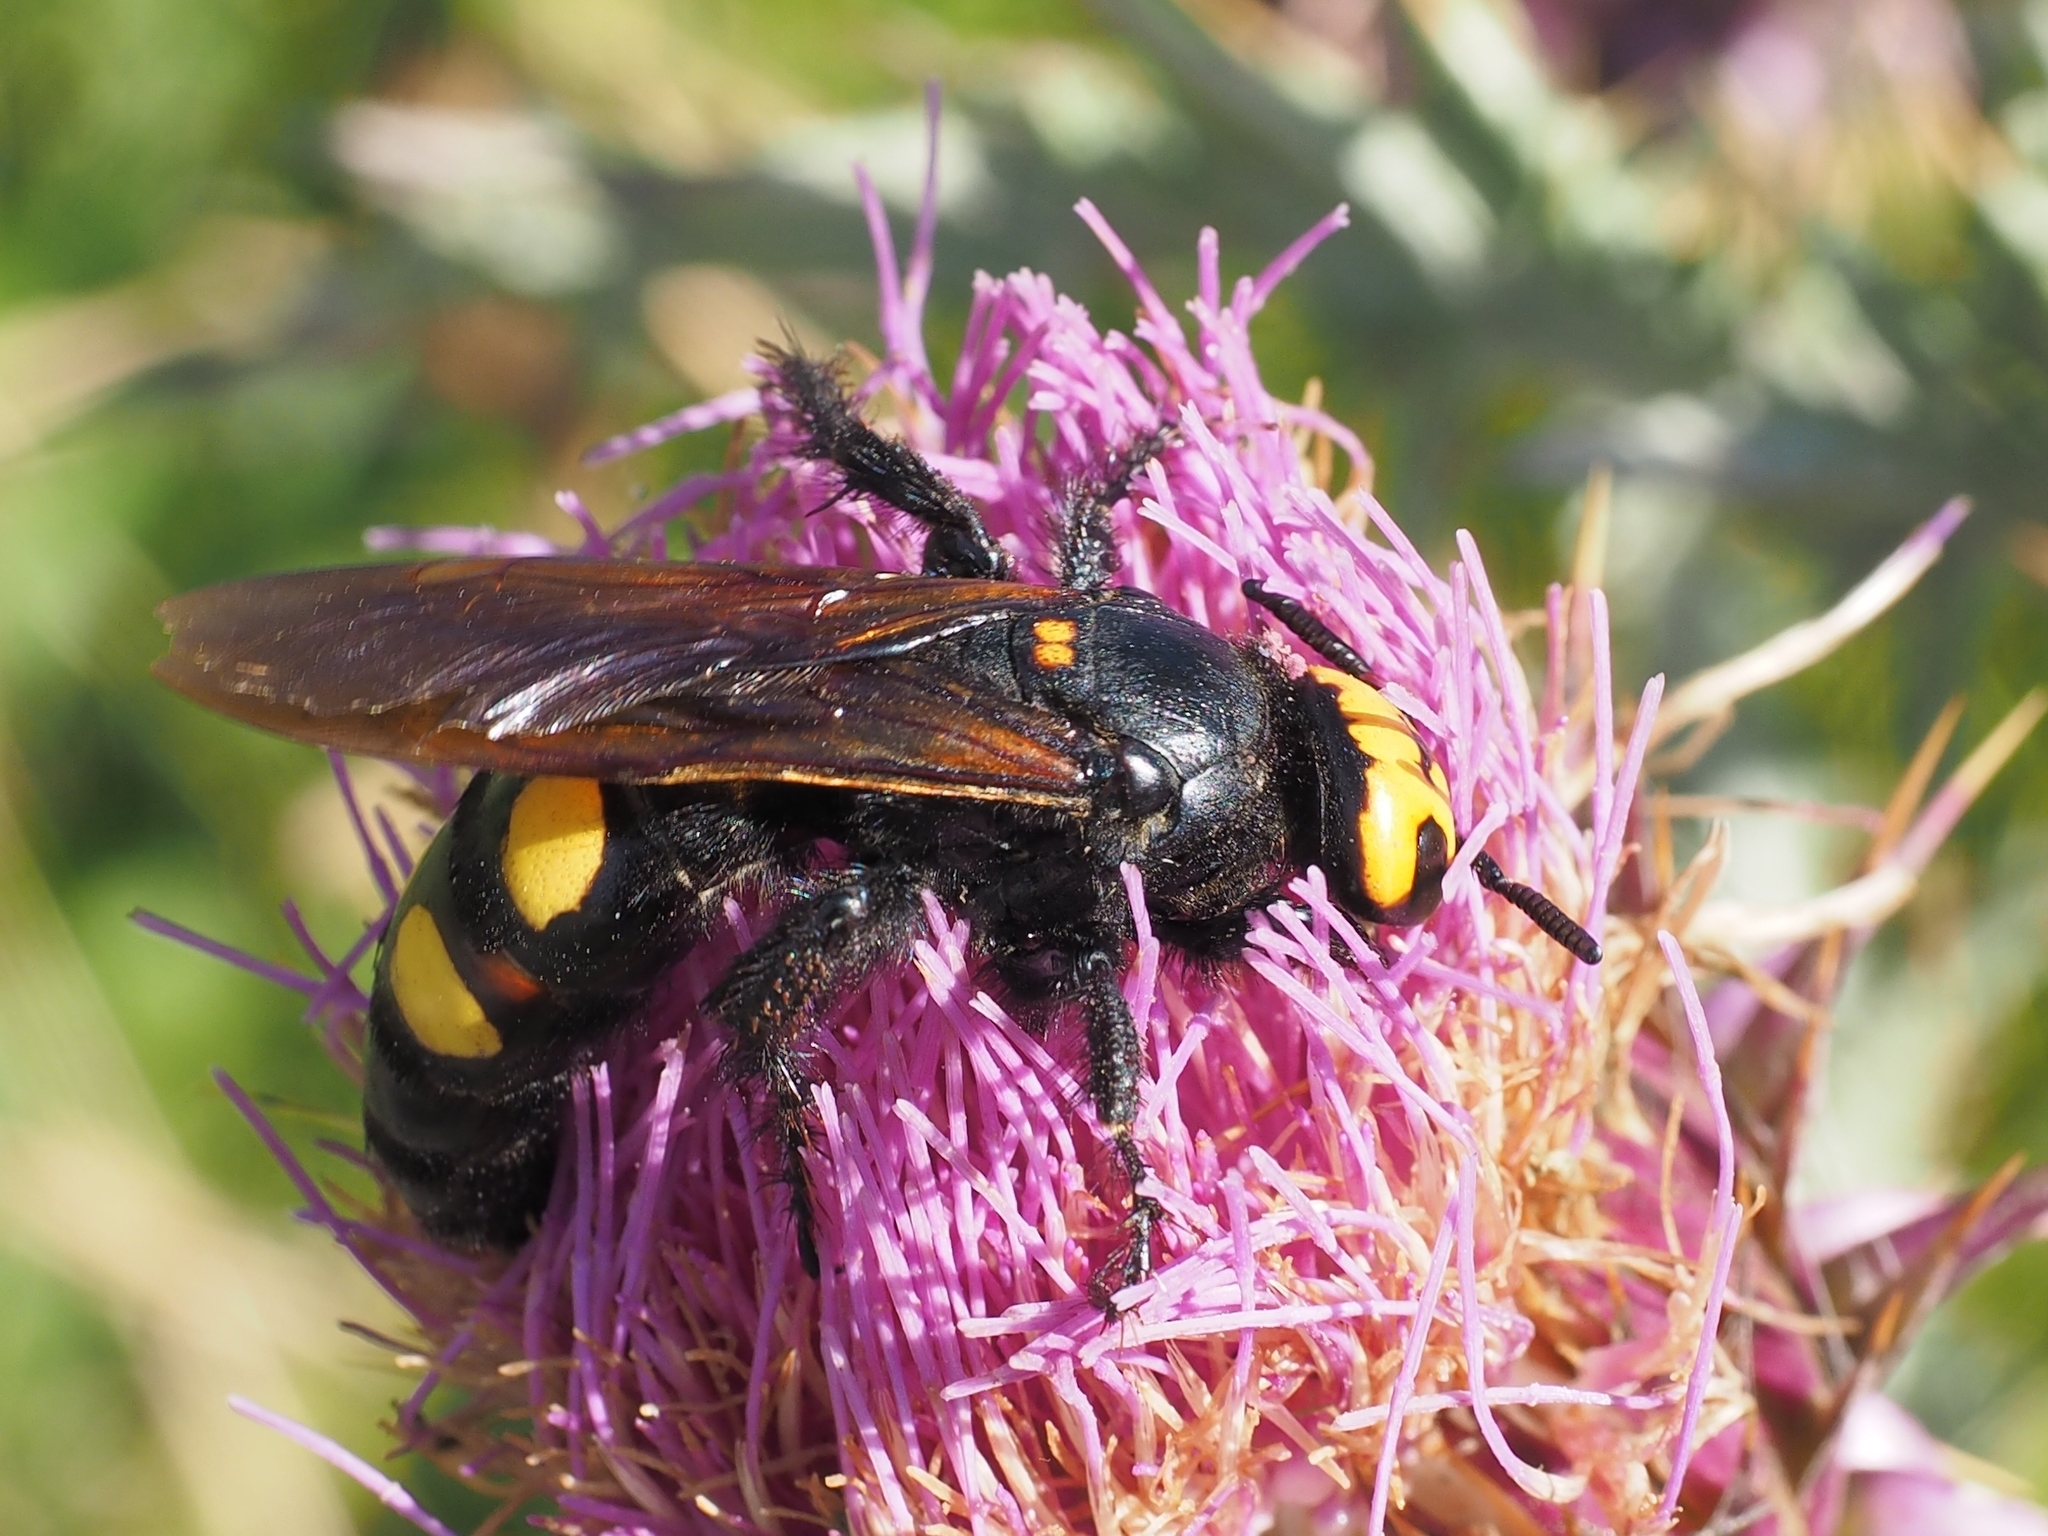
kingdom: Animalia
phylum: Arthropoda
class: Insecta
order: Hymenoptera
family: Scoliidae
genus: Megascolia
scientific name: Megascolia maculata
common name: Mammoth wasp
